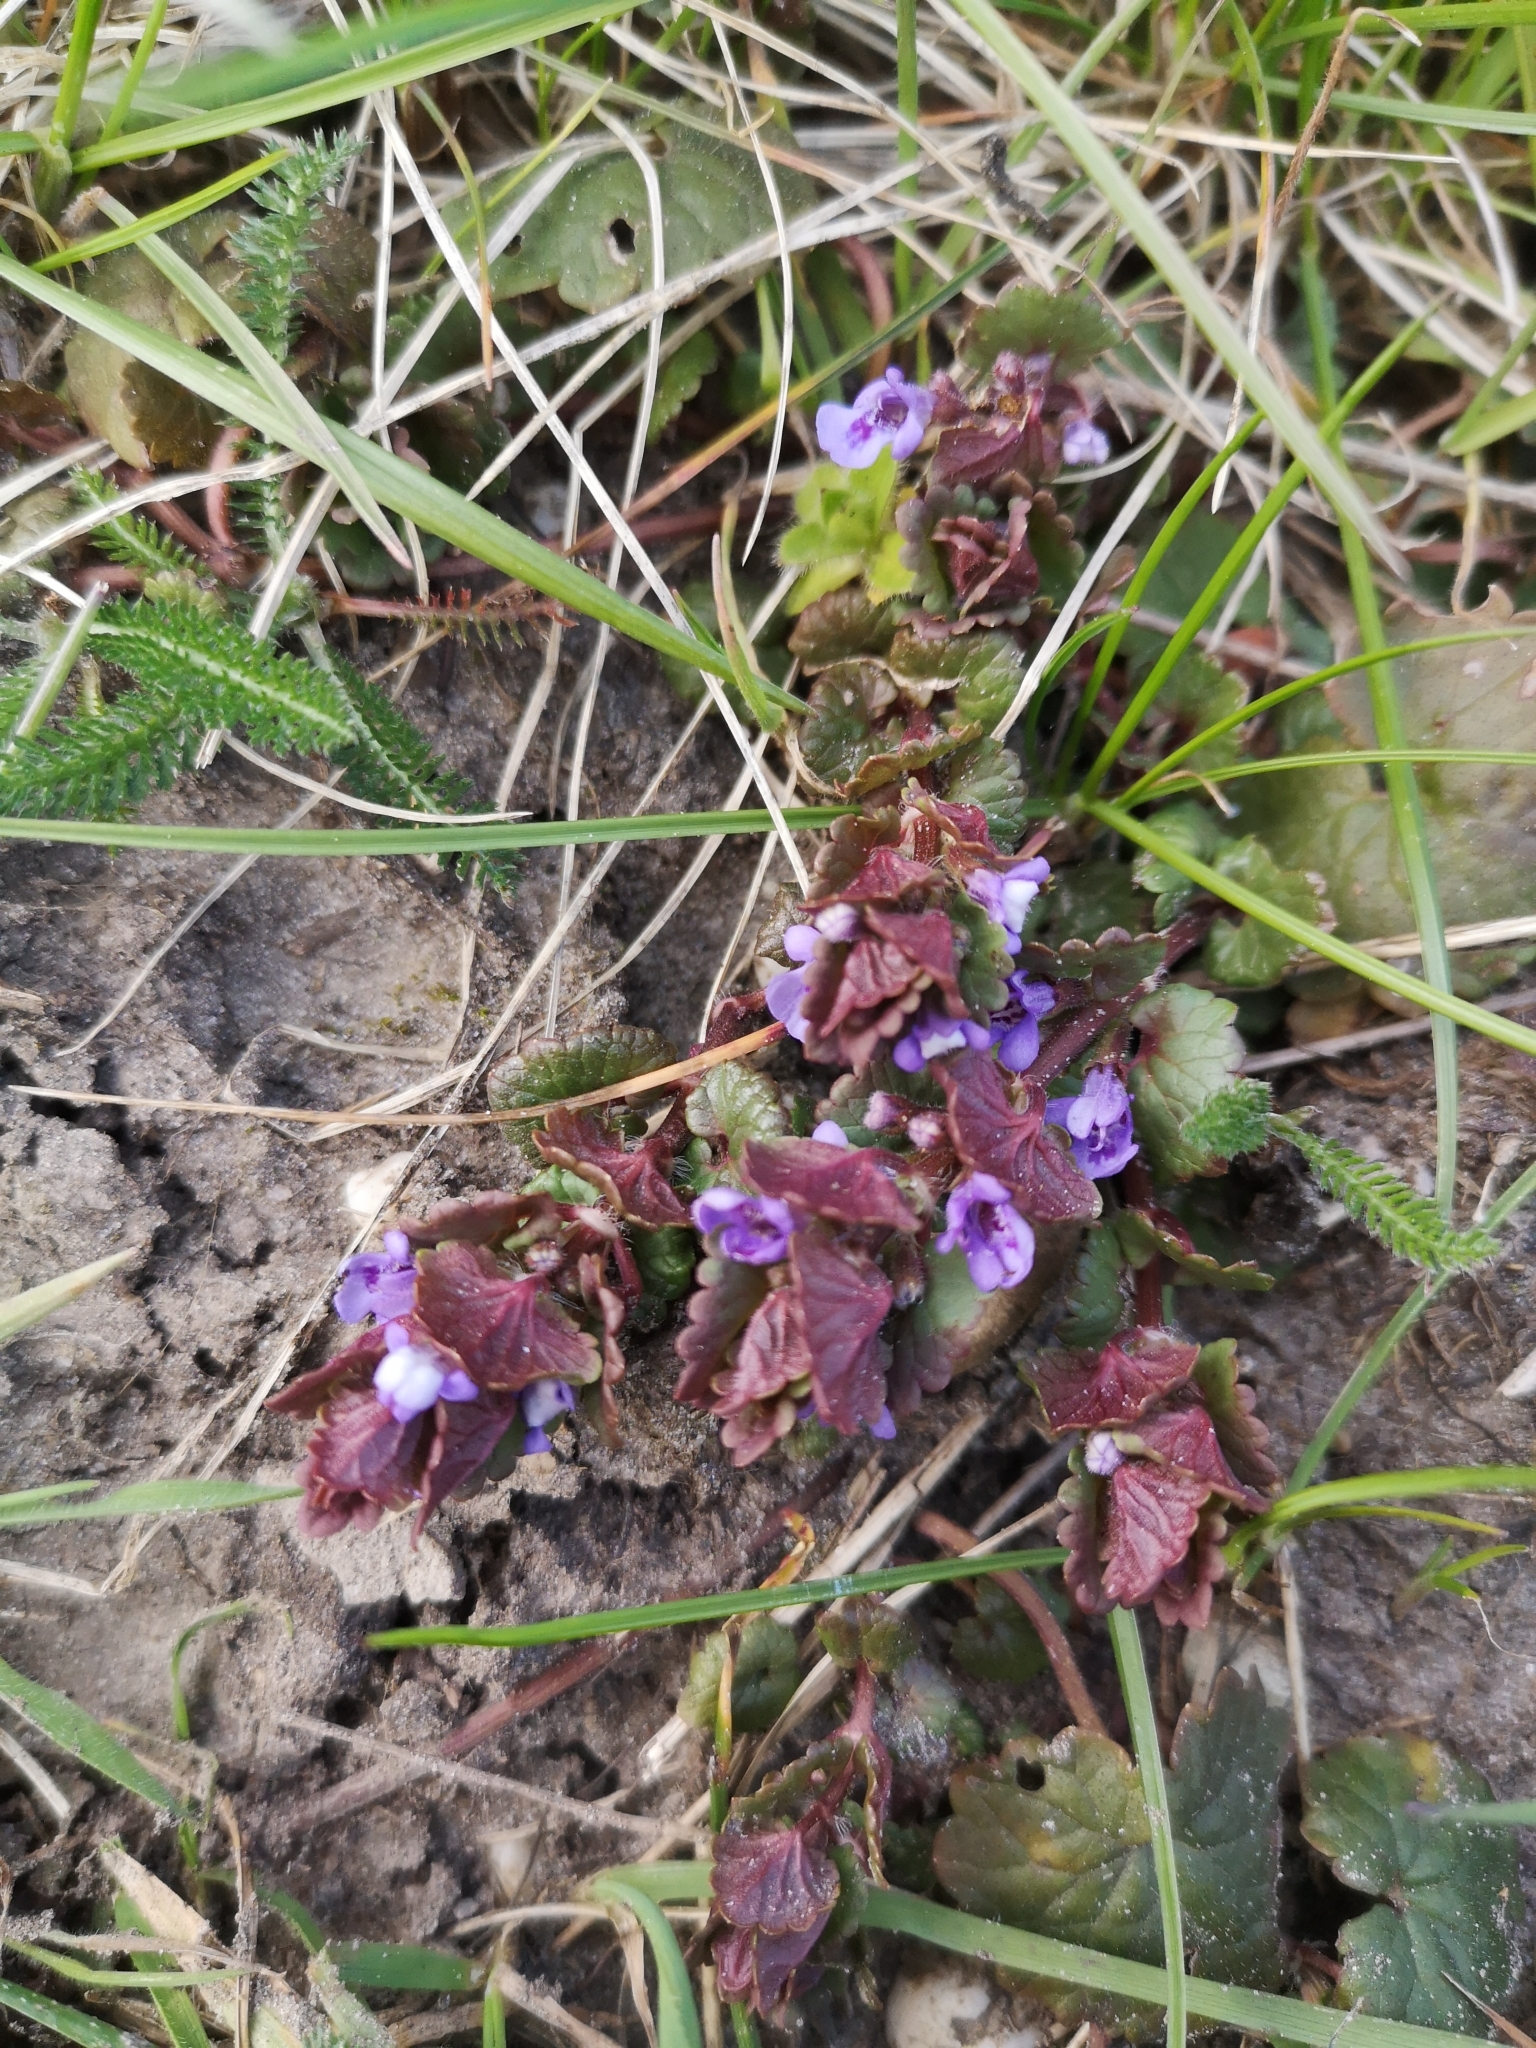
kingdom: Plantae
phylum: Tracheophyta
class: Magnoliopsida
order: Lamiales
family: Lamiaceae
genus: Glechoma
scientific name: Glechoma hederacea
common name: Ground ivy
